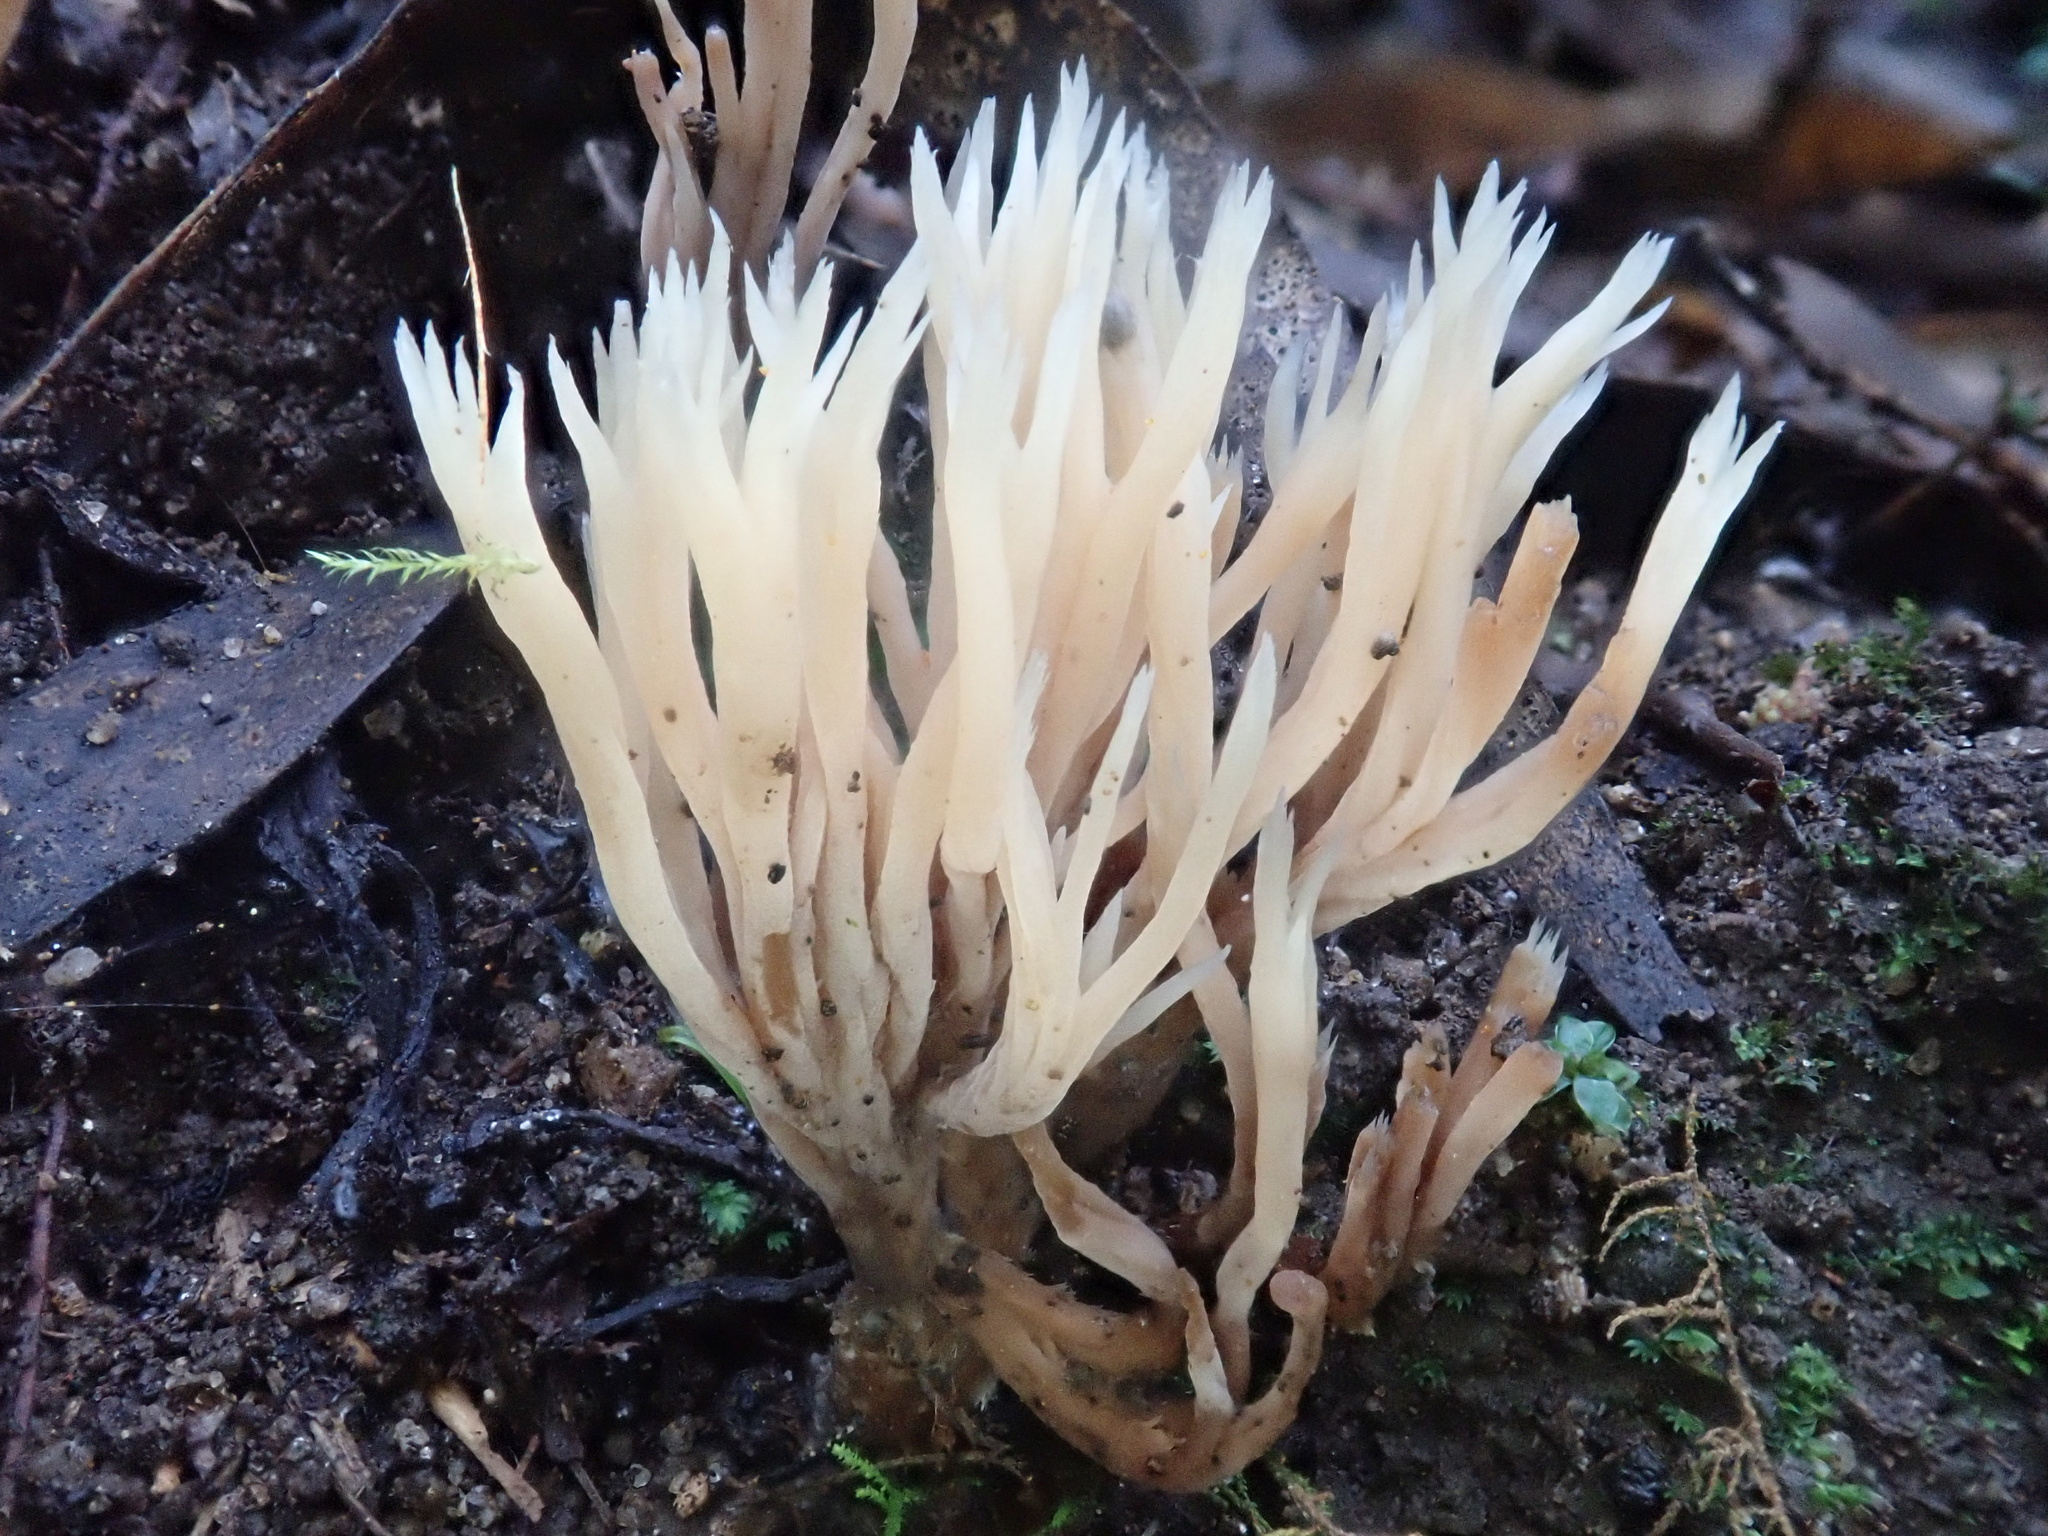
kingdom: Fungi
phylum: Basidiomycota
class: Agaricomycetes
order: Cantharellales
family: Hydnaceae
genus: Clavulina
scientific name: Clavulina coralloides
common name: Crested coral
